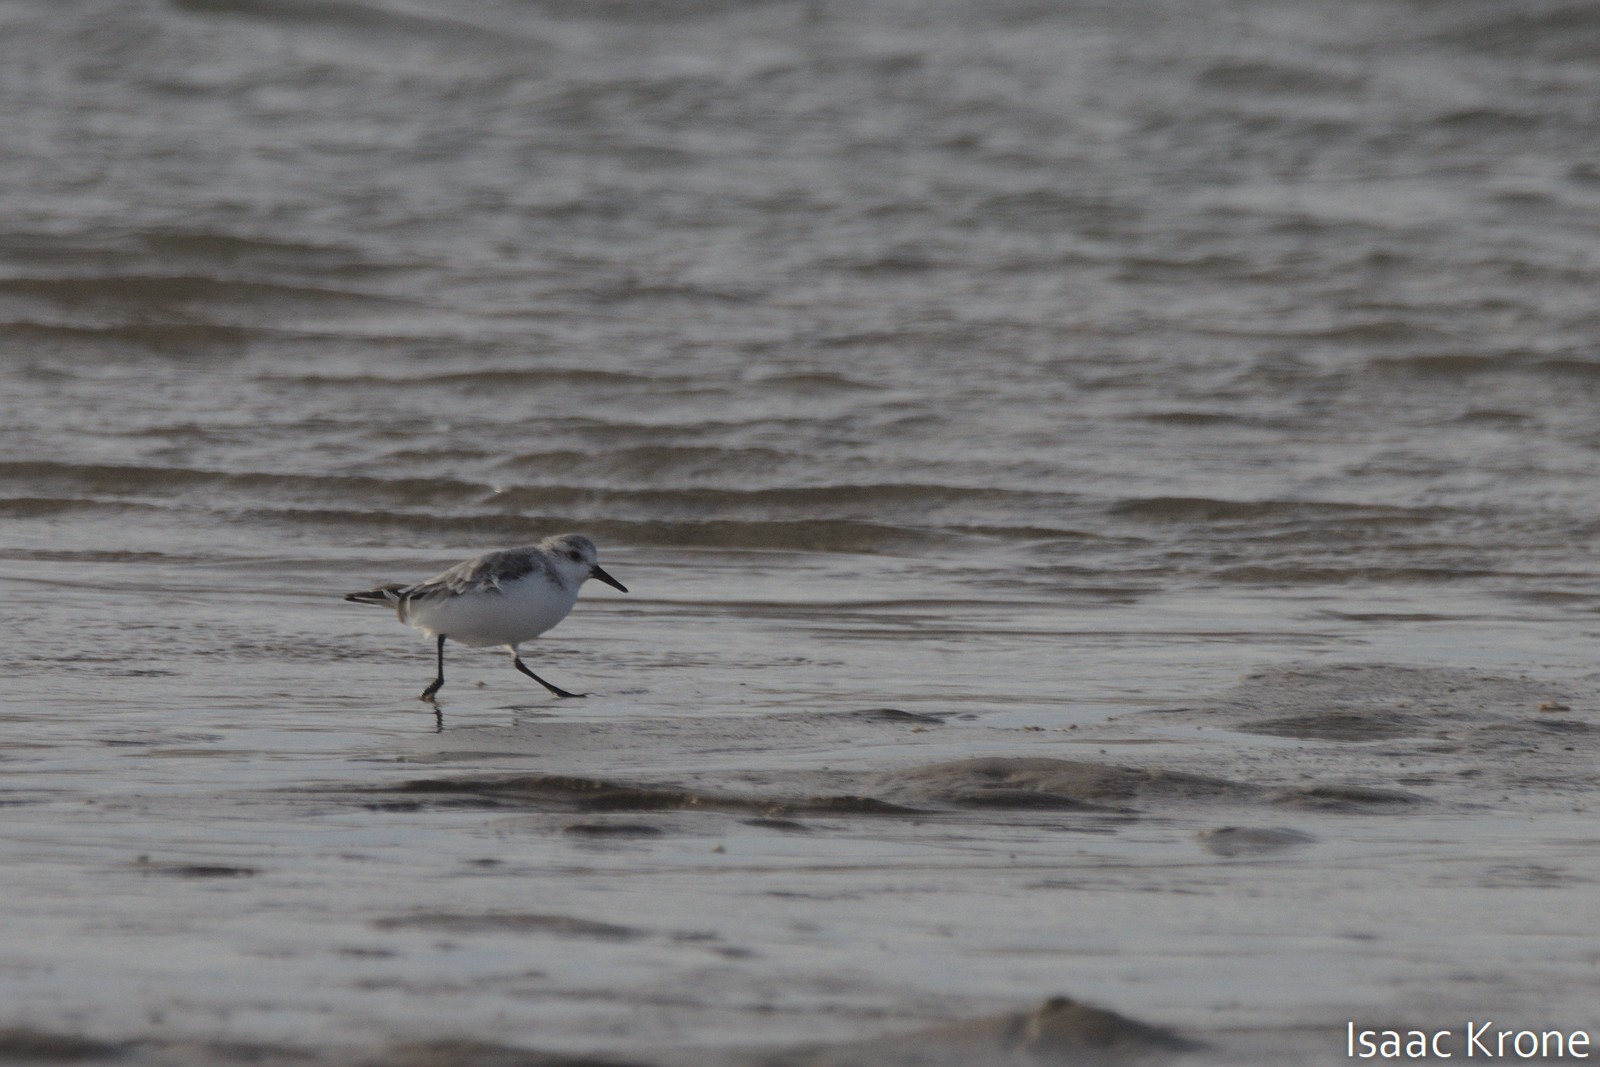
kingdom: Animalia
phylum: Chordata
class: Aves
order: Charadriiformes
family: Scolopacidae
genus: Calidris
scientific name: Calidris alba
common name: Sanderling
